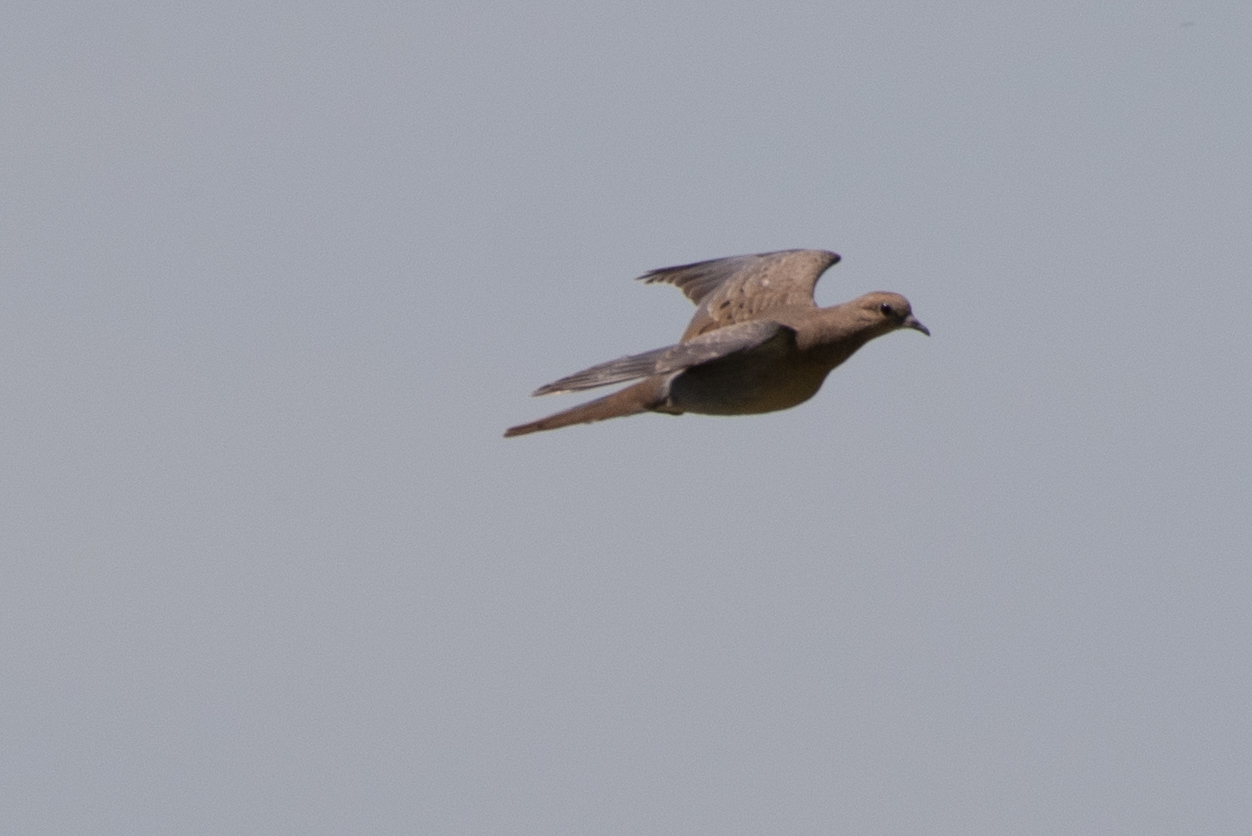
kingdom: Animalia
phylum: Chordata
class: Aves
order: Columbiformes
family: Columbidae
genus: Zenaida
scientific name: Zenaida macroura
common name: Mourning dove
